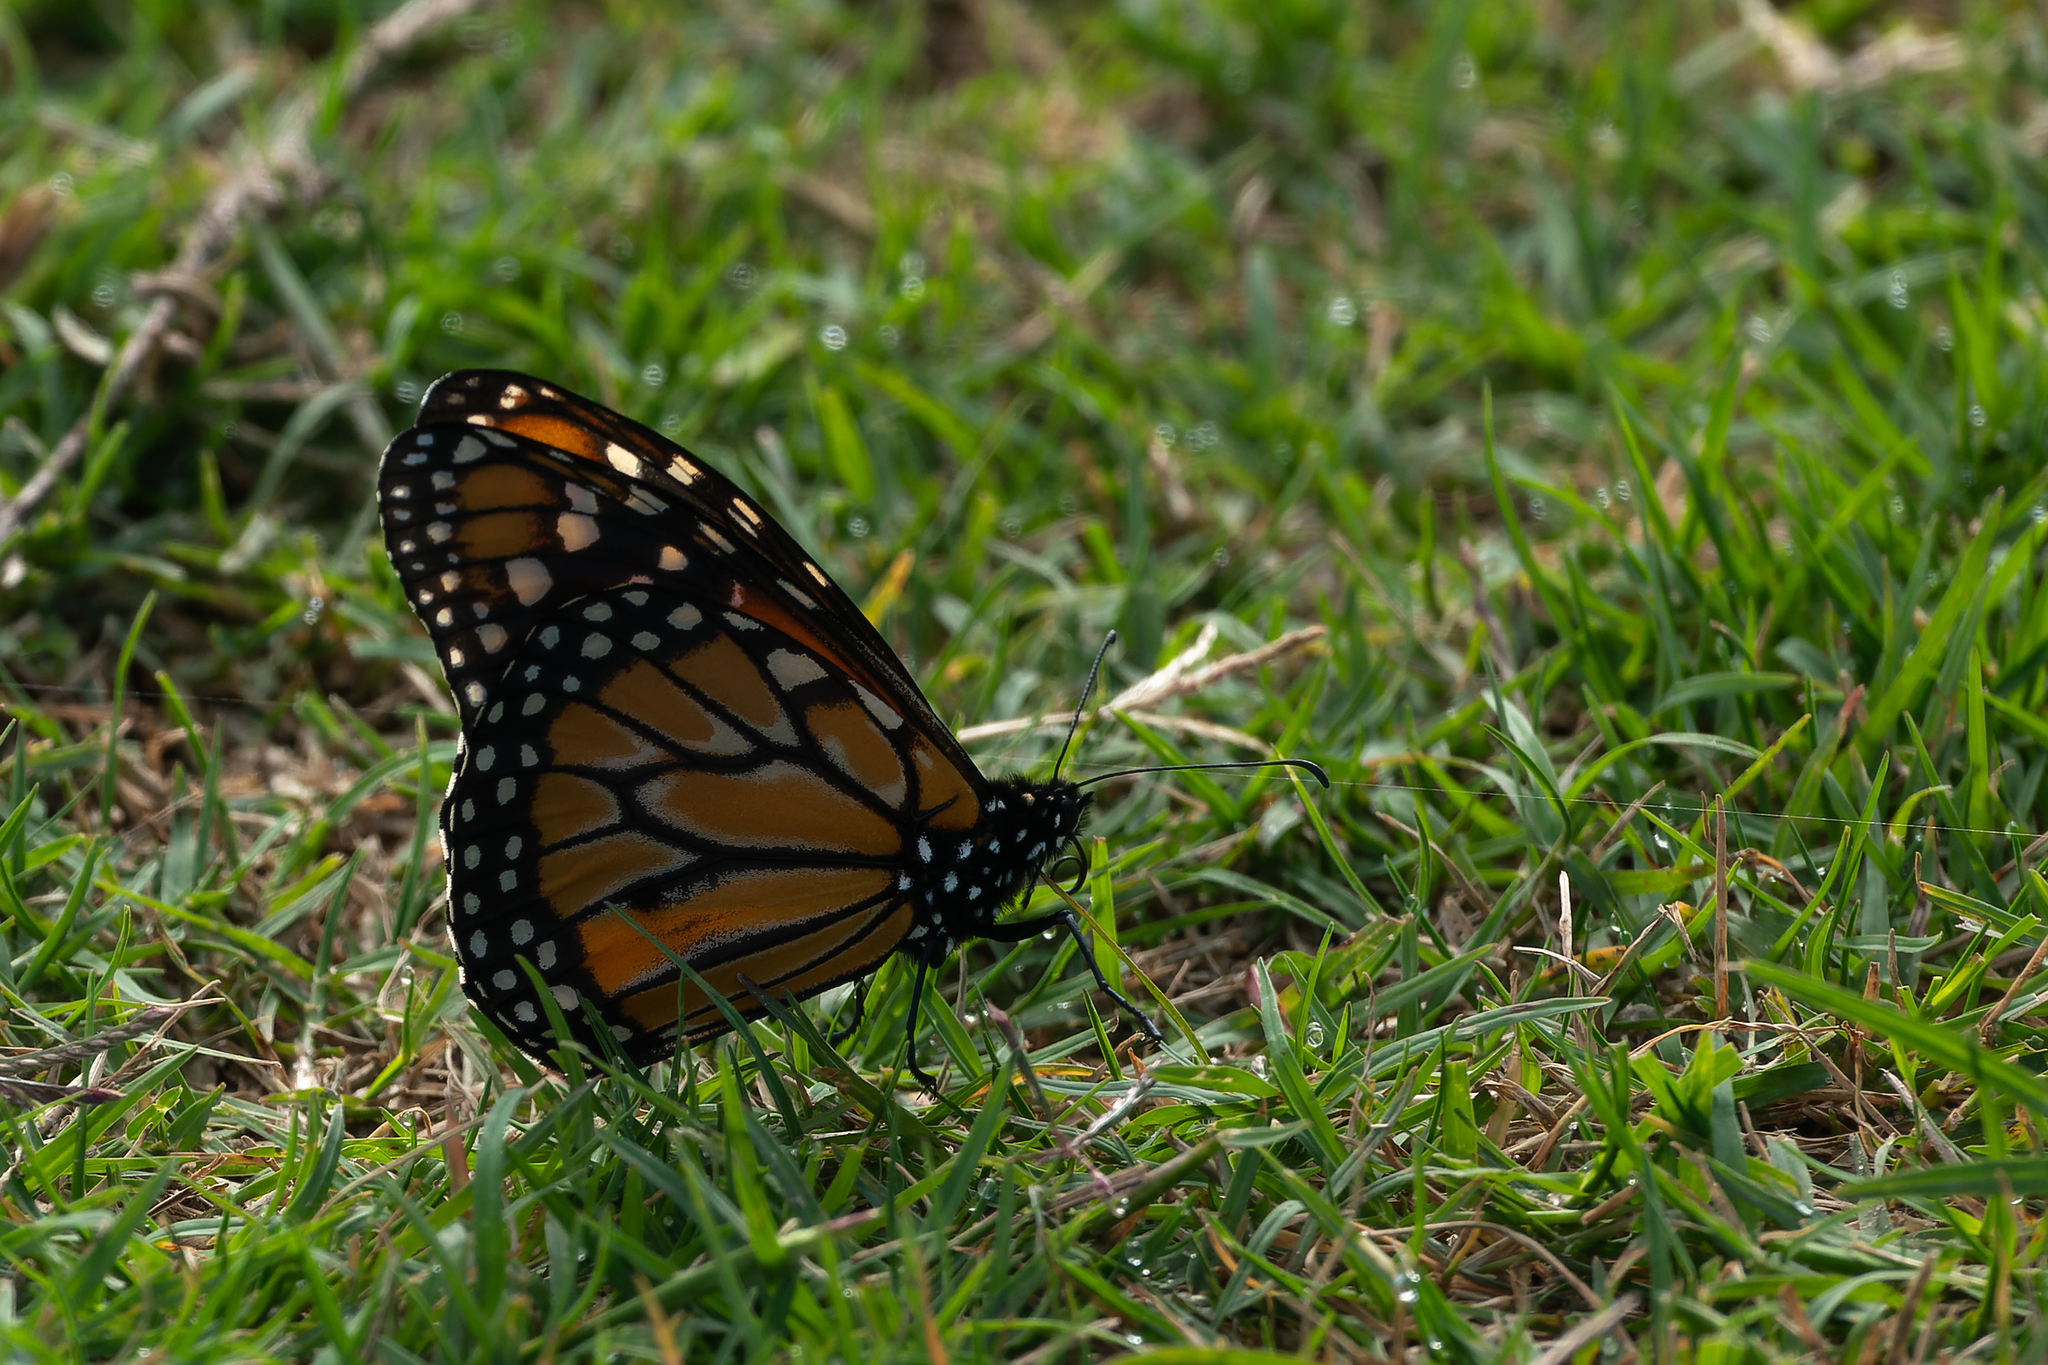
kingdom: Animalia
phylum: Arthropoda
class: Insecta
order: Lepidoptera
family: Nymphalidae
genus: Danaus
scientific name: Danaus erippus
